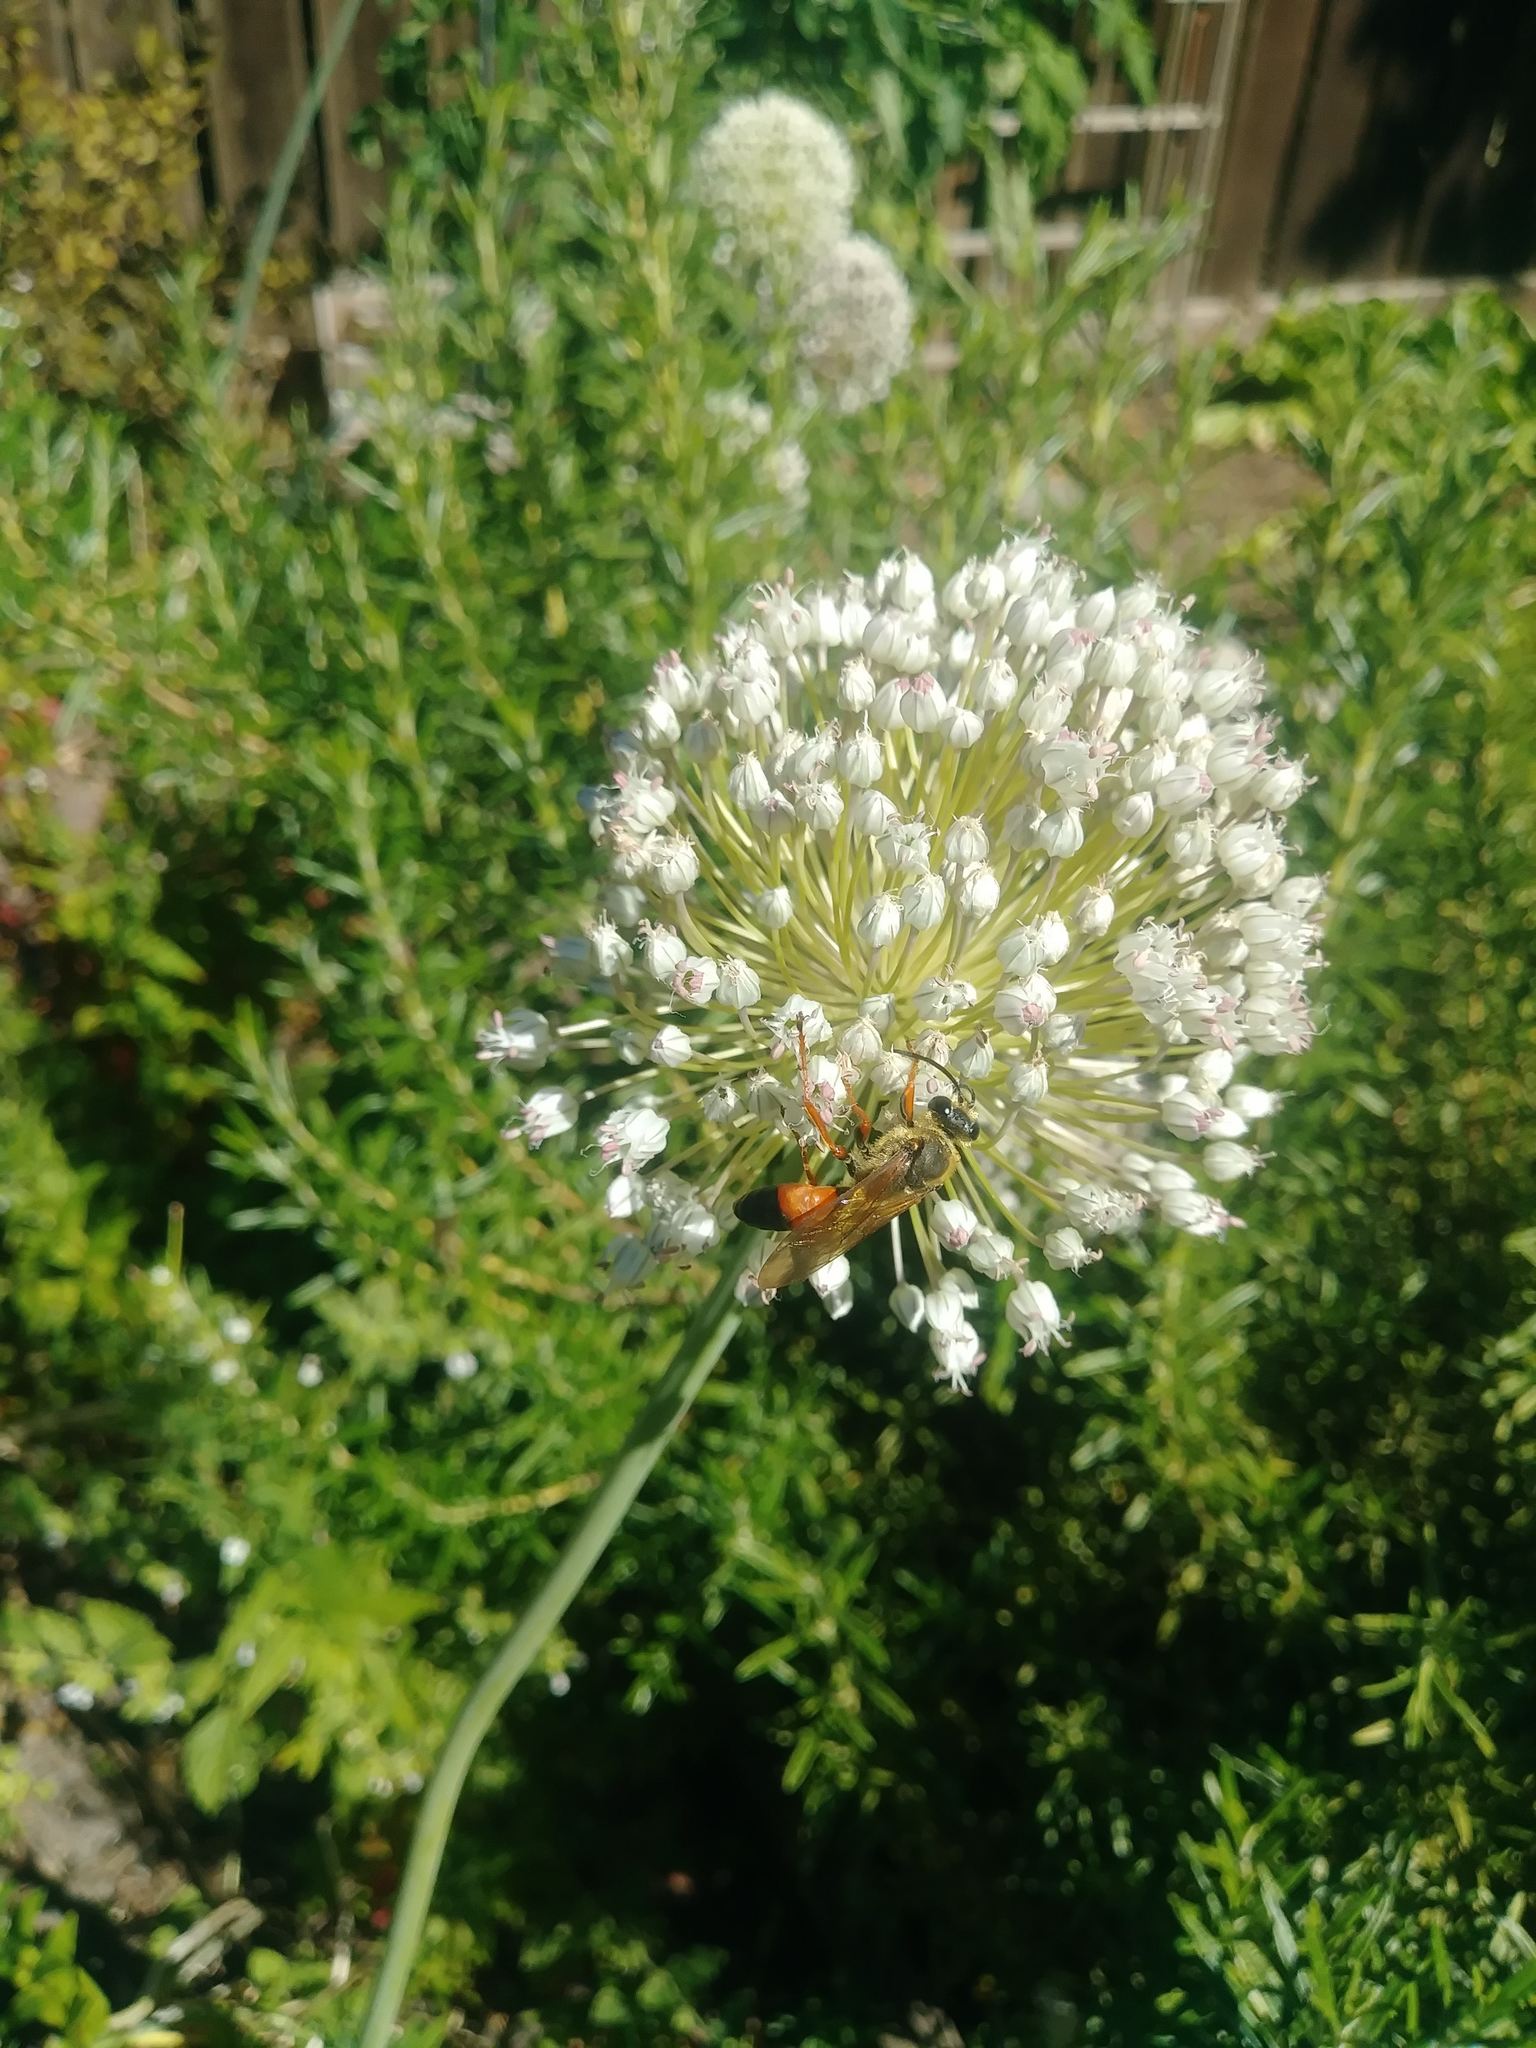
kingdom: Animalia
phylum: Arthropoda
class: Insecta
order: Hymenoptera
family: Sphecidae
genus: Sphex
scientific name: Sphex ichneumoneus
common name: Great golden digger wasp
